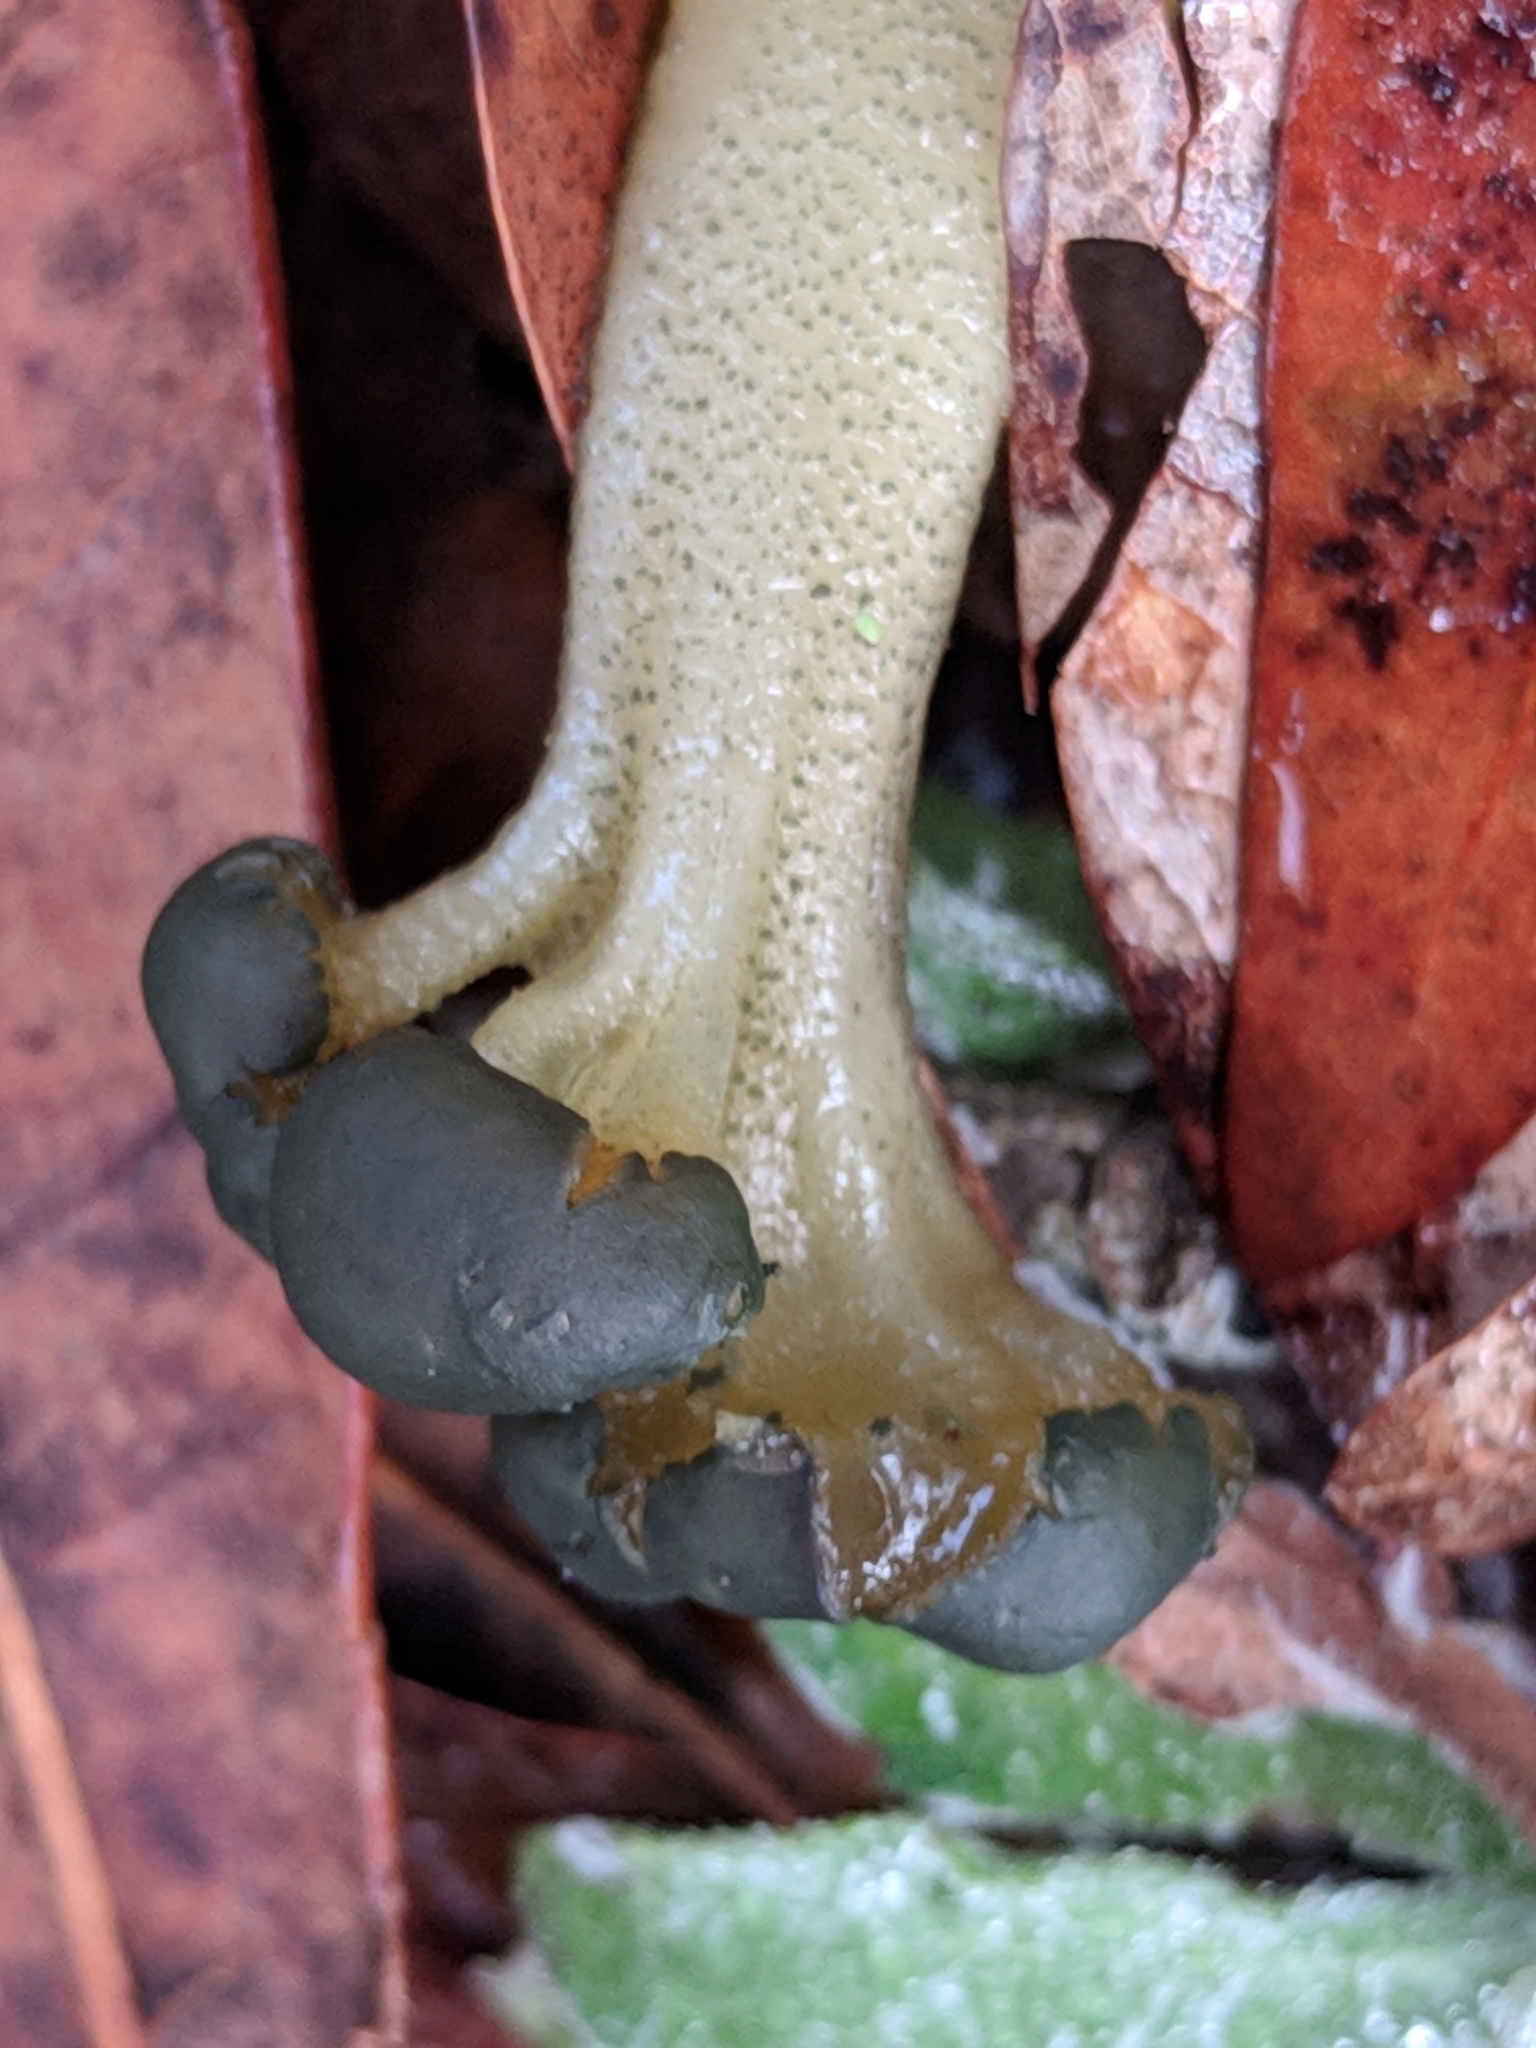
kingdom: Fungi
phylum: Ascomycota
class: Leotiomycetes
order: Leotiales
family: Leotiaceae
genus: Leotia
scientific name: Leotia lubrica
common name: Jellybaby
